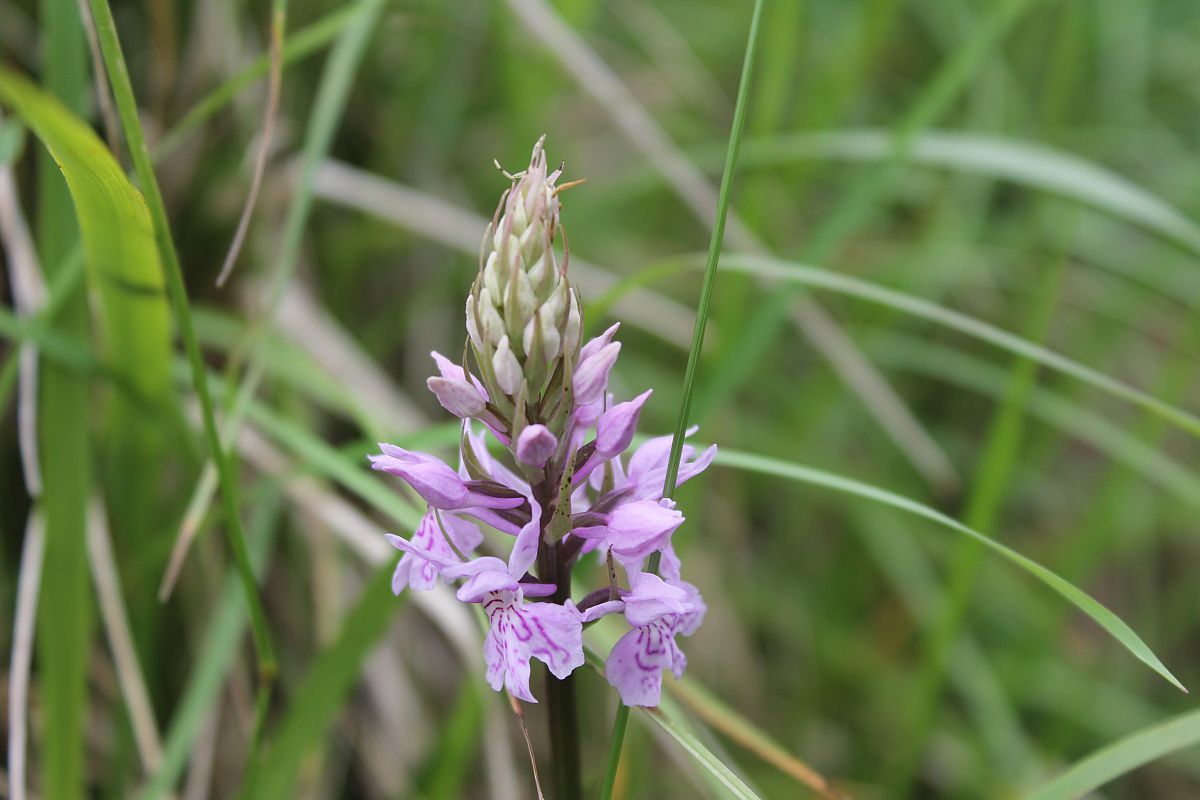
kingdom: Plantae
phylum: Tracheophyta
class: Liliopsida
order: Asparagales
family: Orchidaceae
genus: Dactylorhiza
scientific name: Dactylorhiza maculata
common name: Heath spotted-orchid
